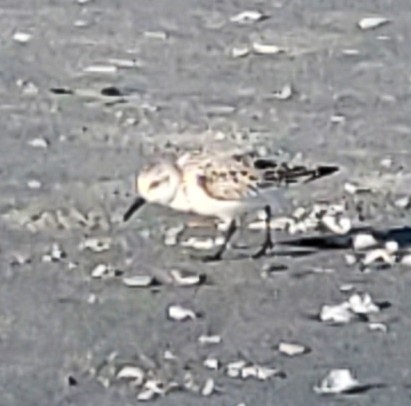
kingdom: Animalia
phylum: Chordata
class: Aves
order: Charadriiformes
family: Scolopacidae
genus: Calidris
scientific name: Calidris alba
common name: Sanderling
